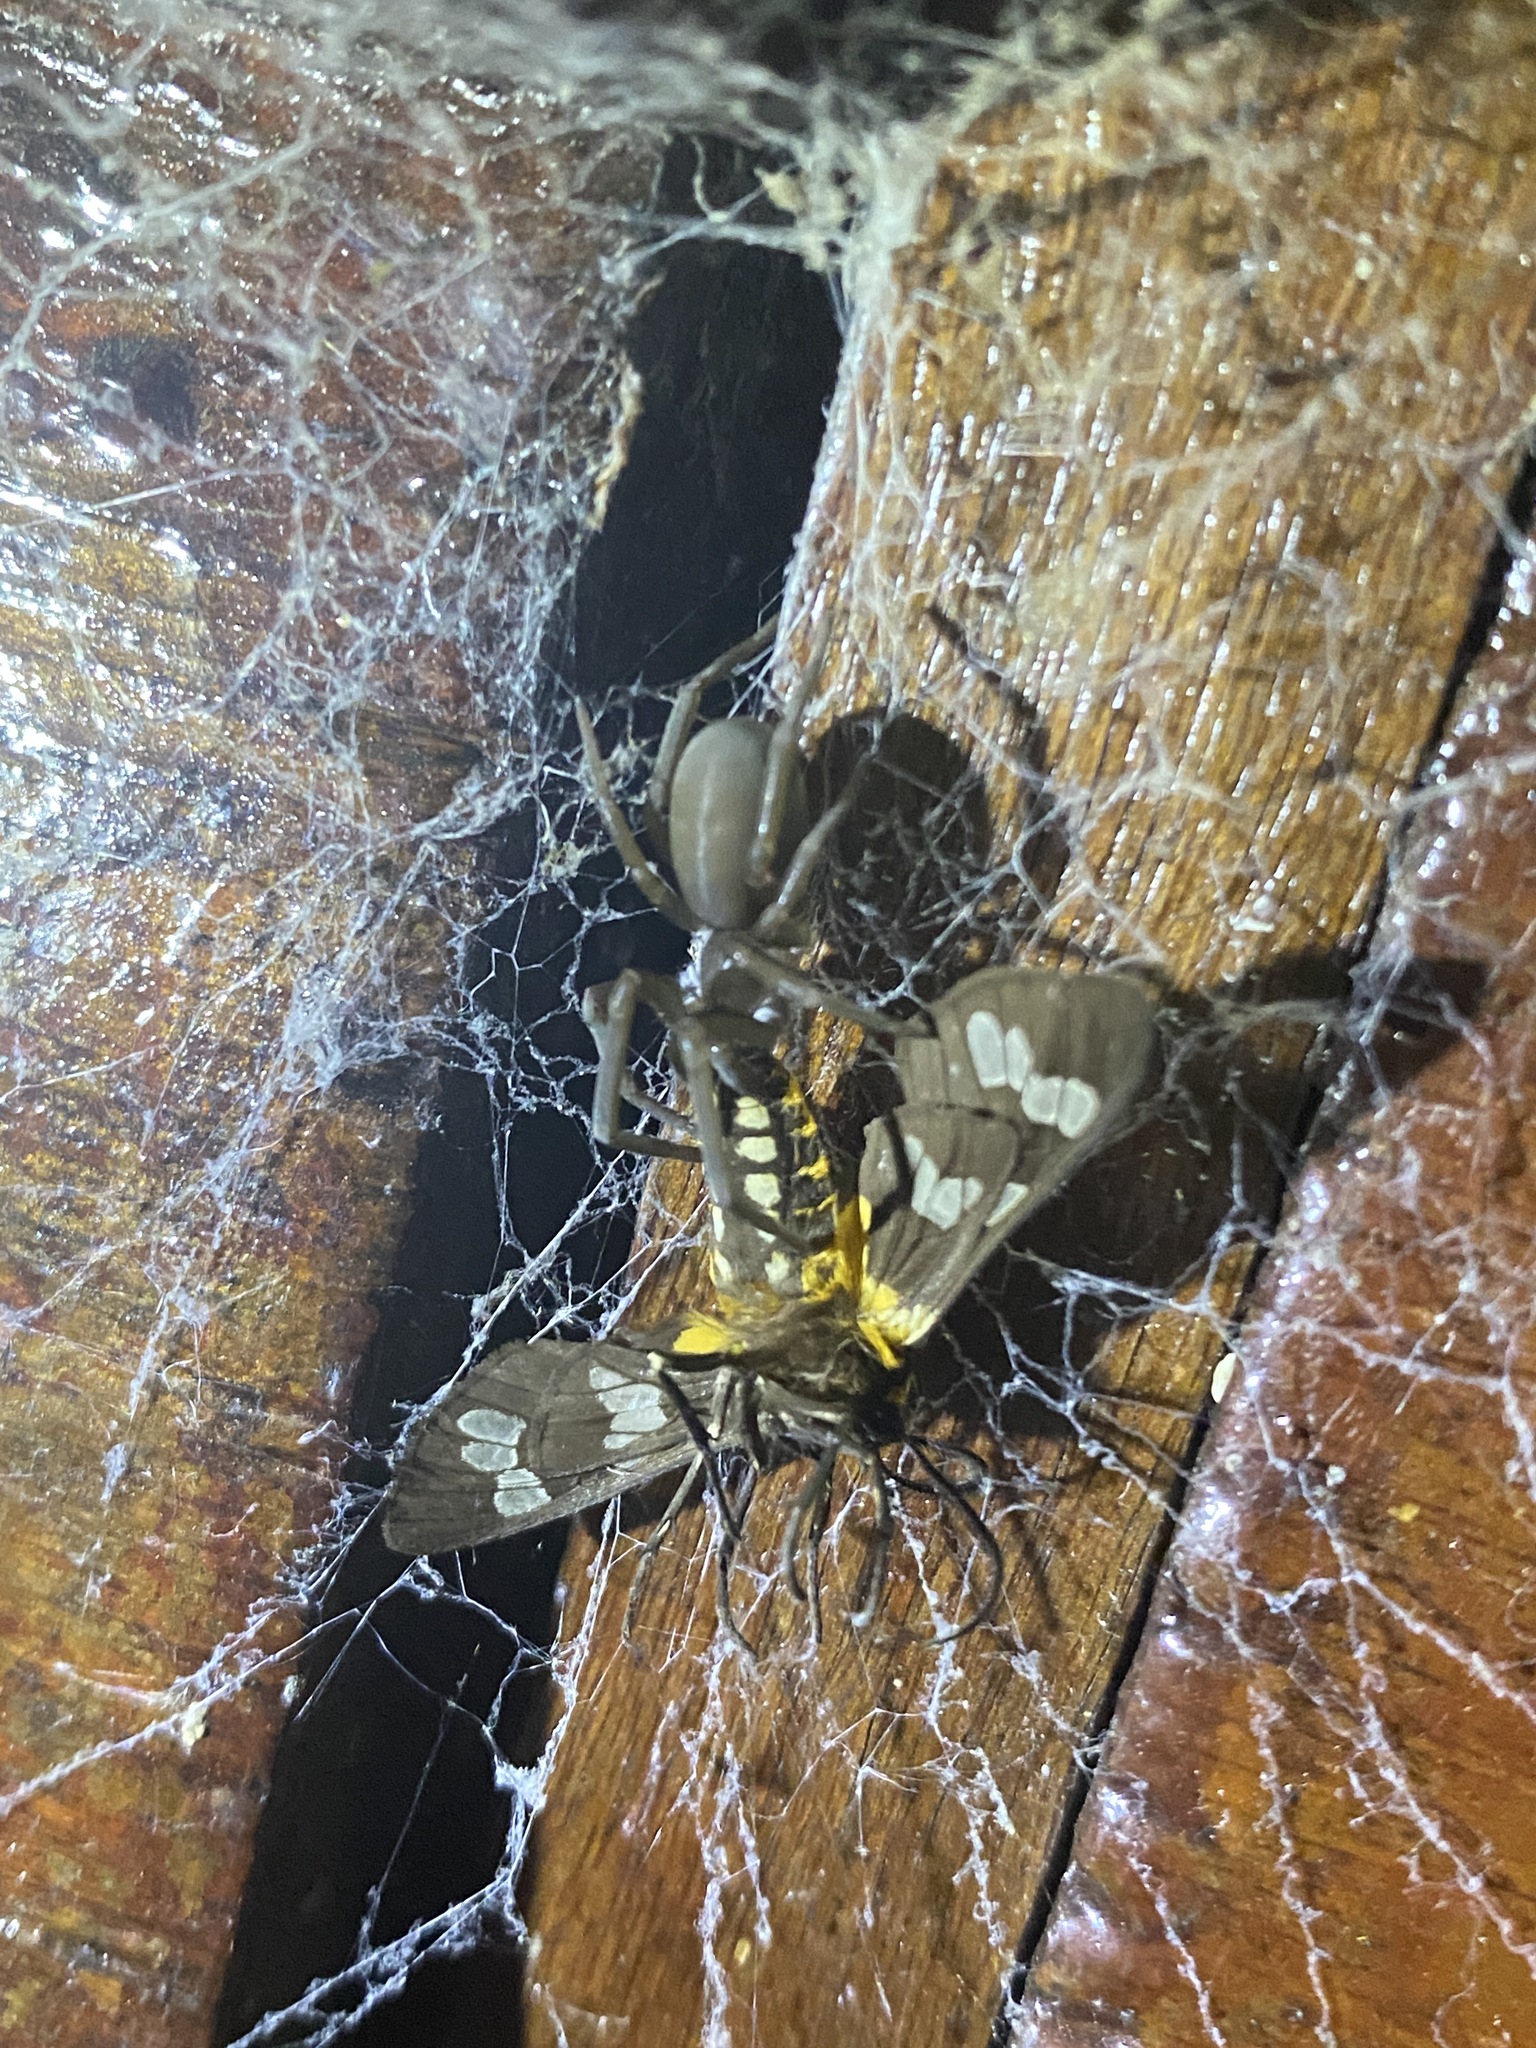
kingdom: Animalia
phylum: Arthropoda
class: Arachnida
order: Araneae
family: Filistatidae
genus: Kukulcania
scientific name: Kukulcania hibernalis
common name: Crevice weaver
